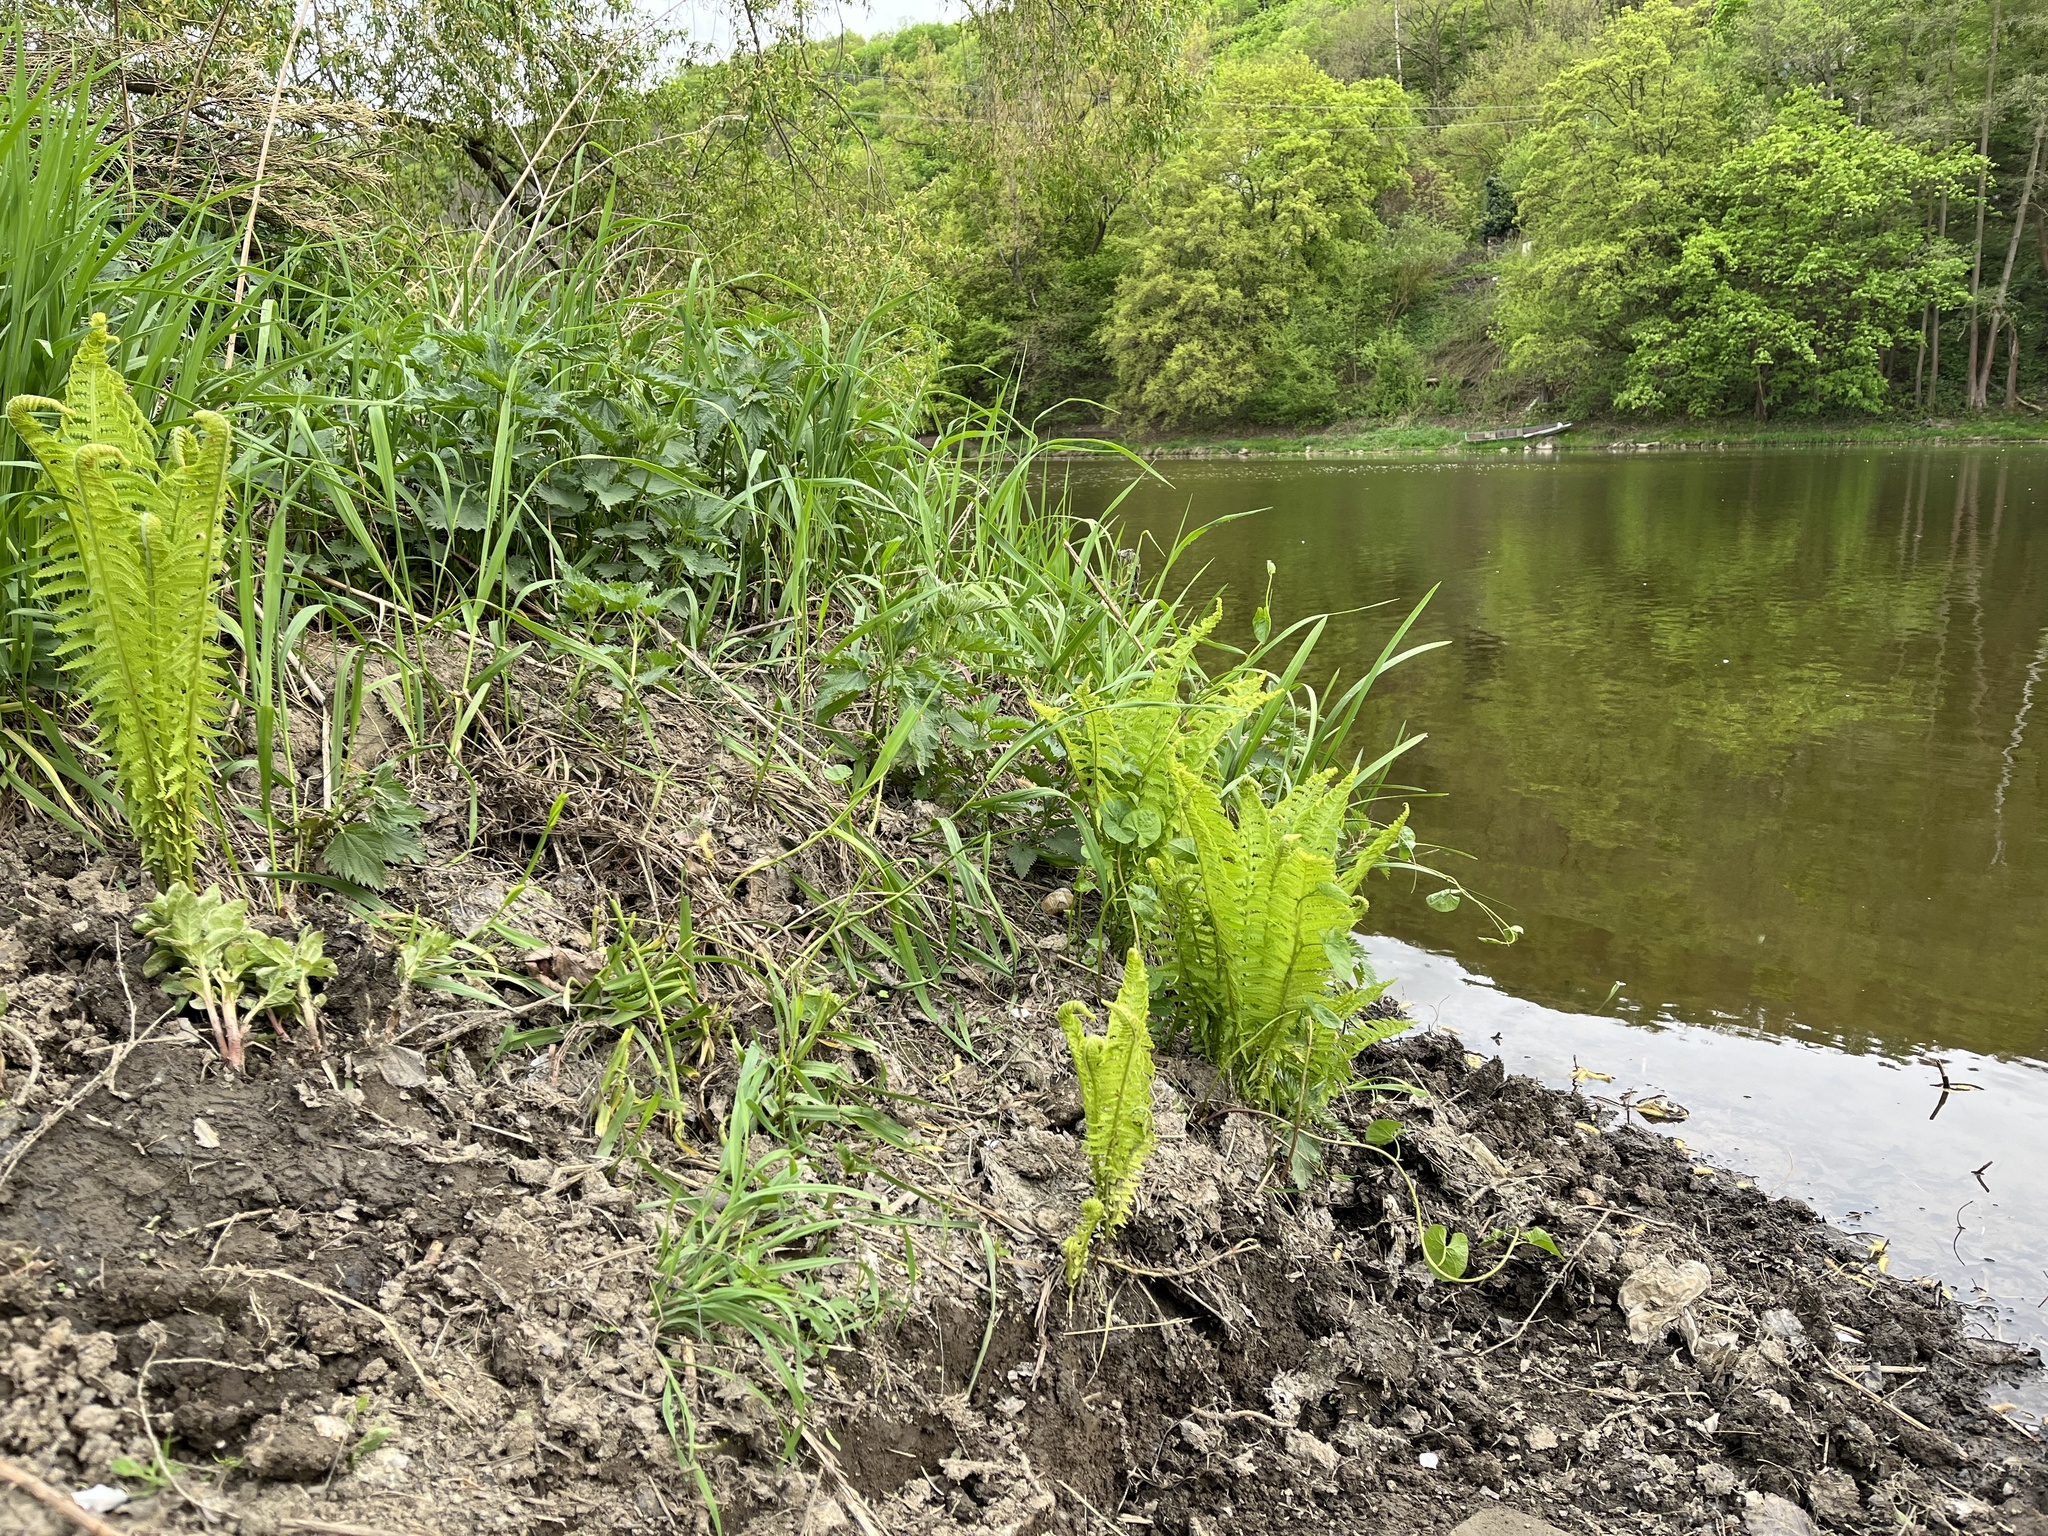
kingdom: Plantae
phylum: Tracheophyta
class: Polypodiopsida
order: Polypodiales
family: Onocleaceae
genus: Matteuccia
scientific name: Matteuccia struthiopteris
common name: Ostrich fern
